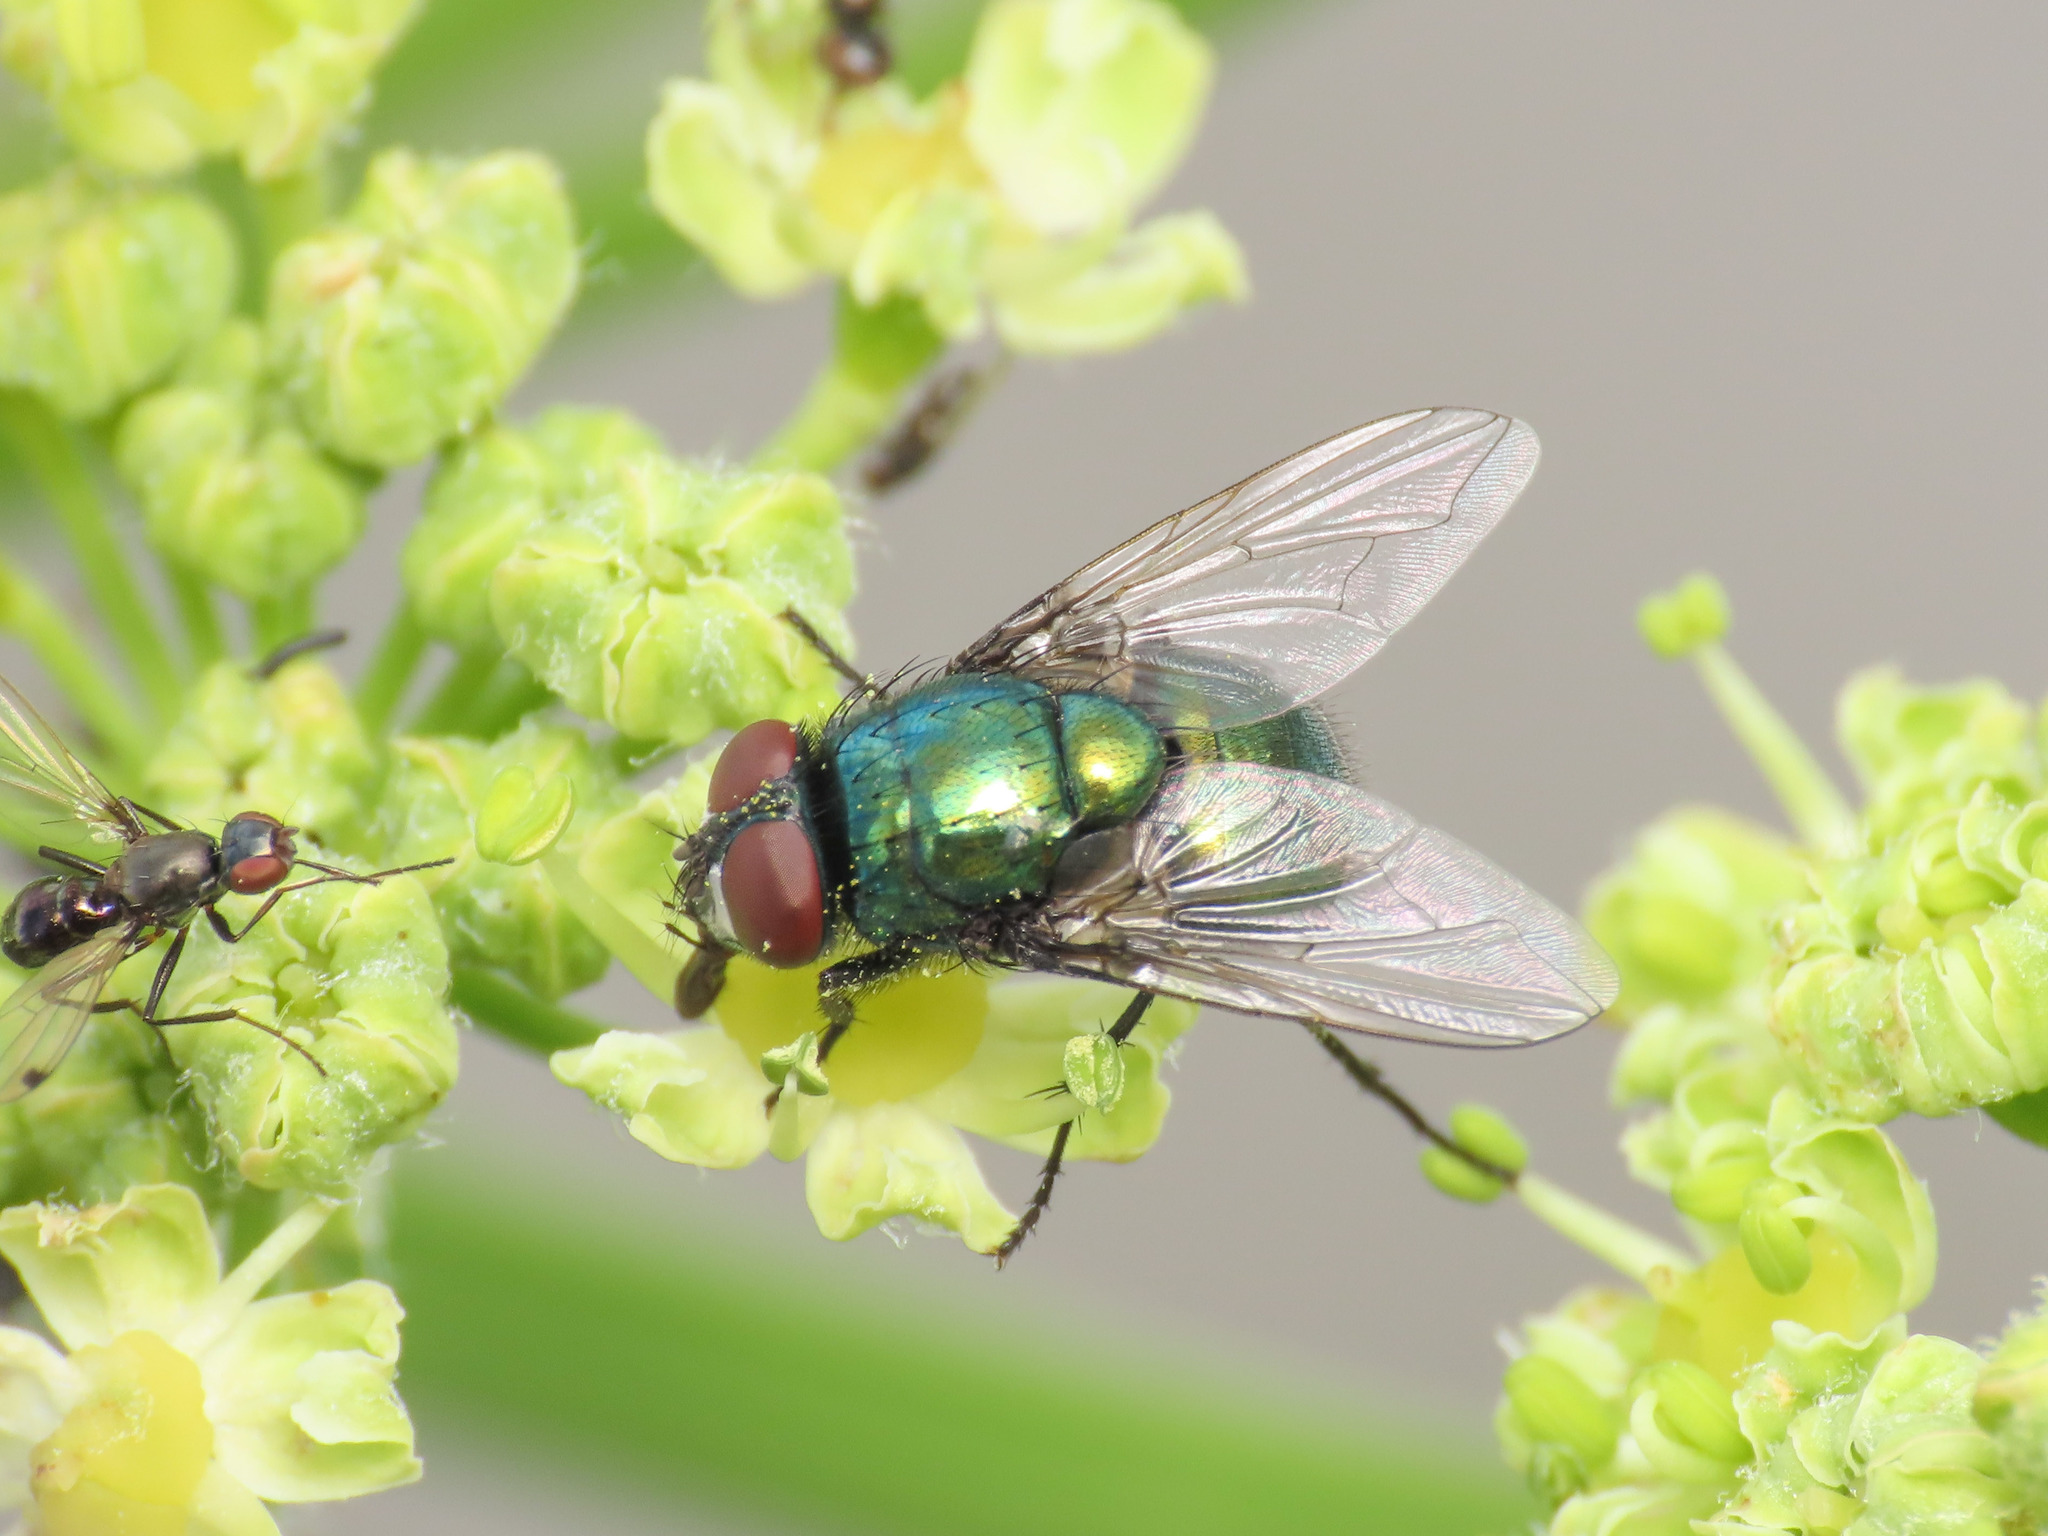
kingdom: Animalia
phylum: Arthropoda
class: Insecta
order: Diptera
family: Muscidae
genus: Neomyia
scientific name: Neomyia cornicina
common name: House fly
